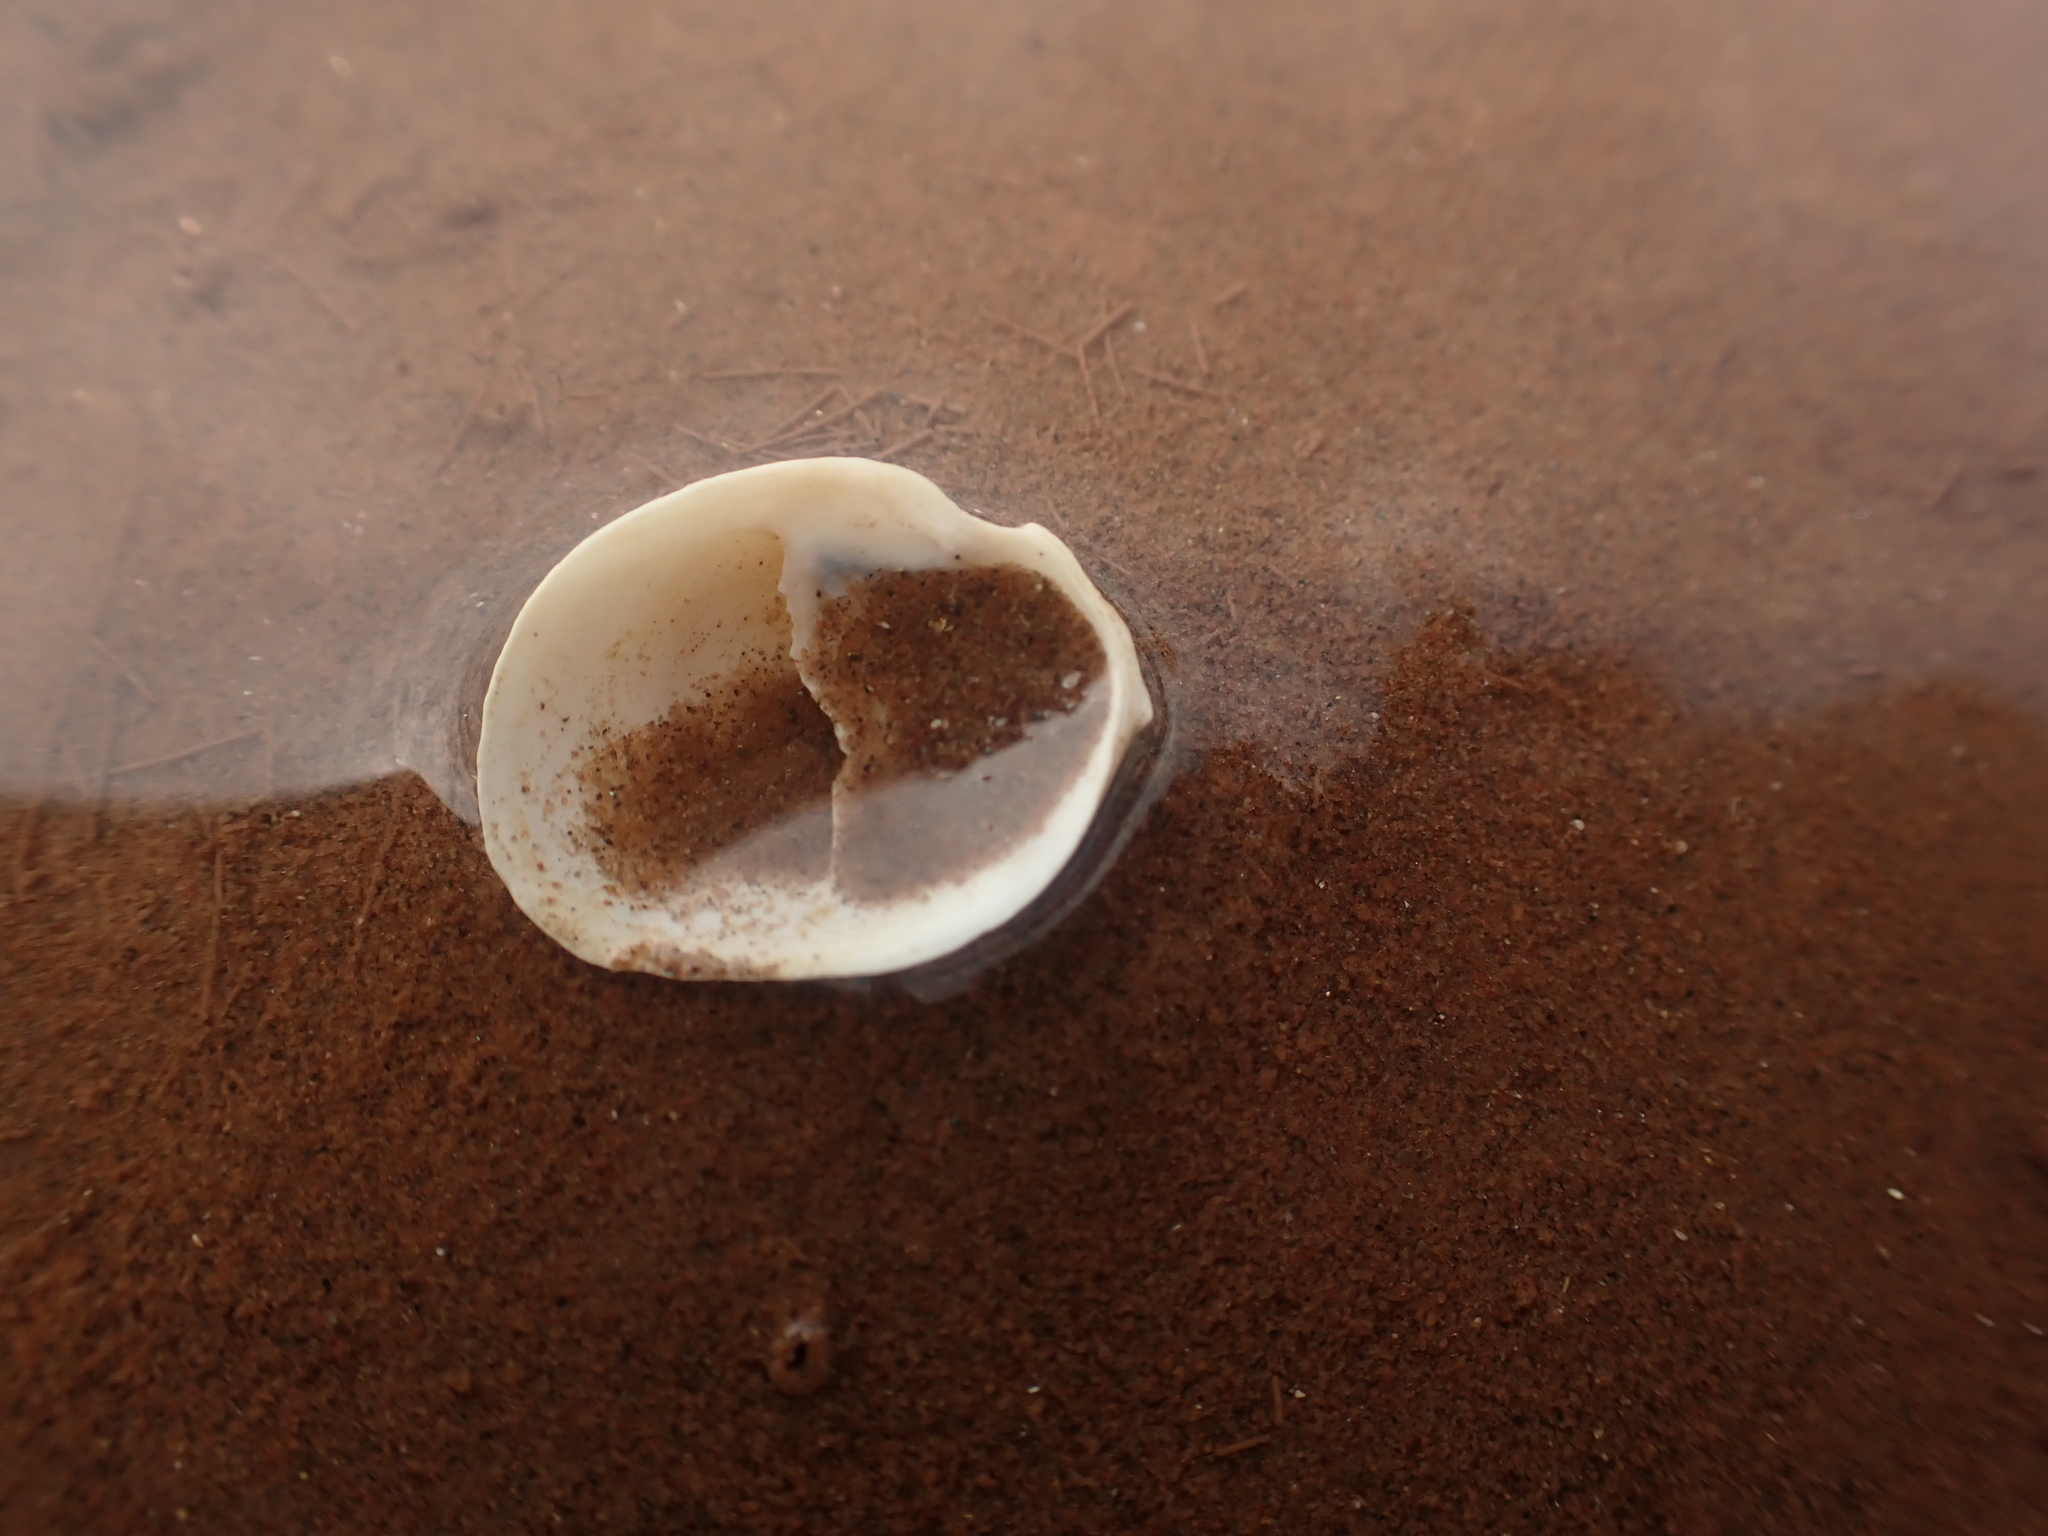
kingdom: Animalia
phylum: Mollusca
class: Gastropoda
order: Littorinimorpha
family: Calyptraeidae
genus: Crepidula
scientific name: Crepidula fornicata
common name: Slipper limpet
